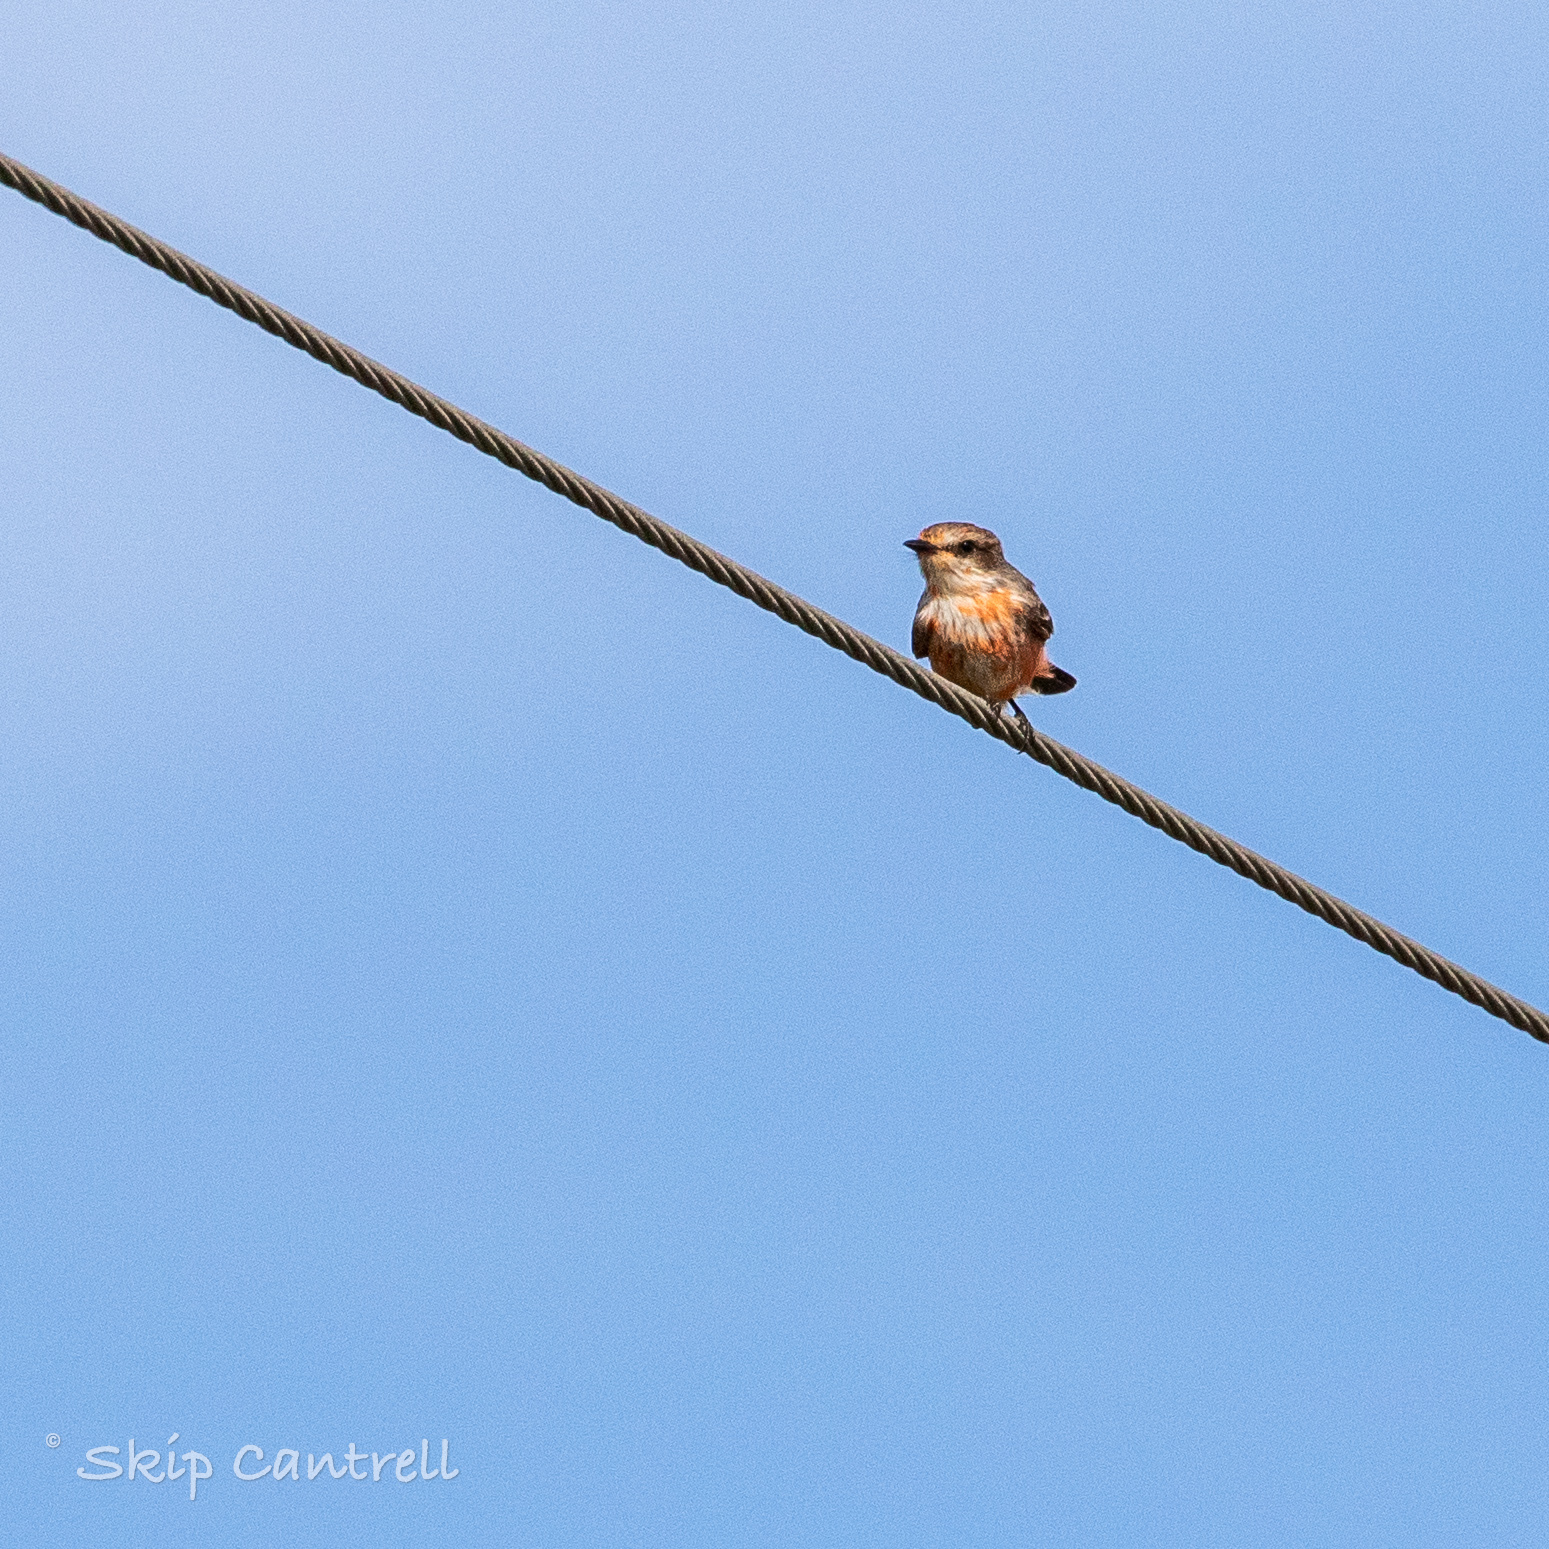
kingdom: Animalia
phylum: Chordata
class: Aves
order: Passeriformes
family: Tyrannidae
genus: Pyrocephalus
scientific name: Pyrocephalus rubinus
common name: Vermilion flycatcher
